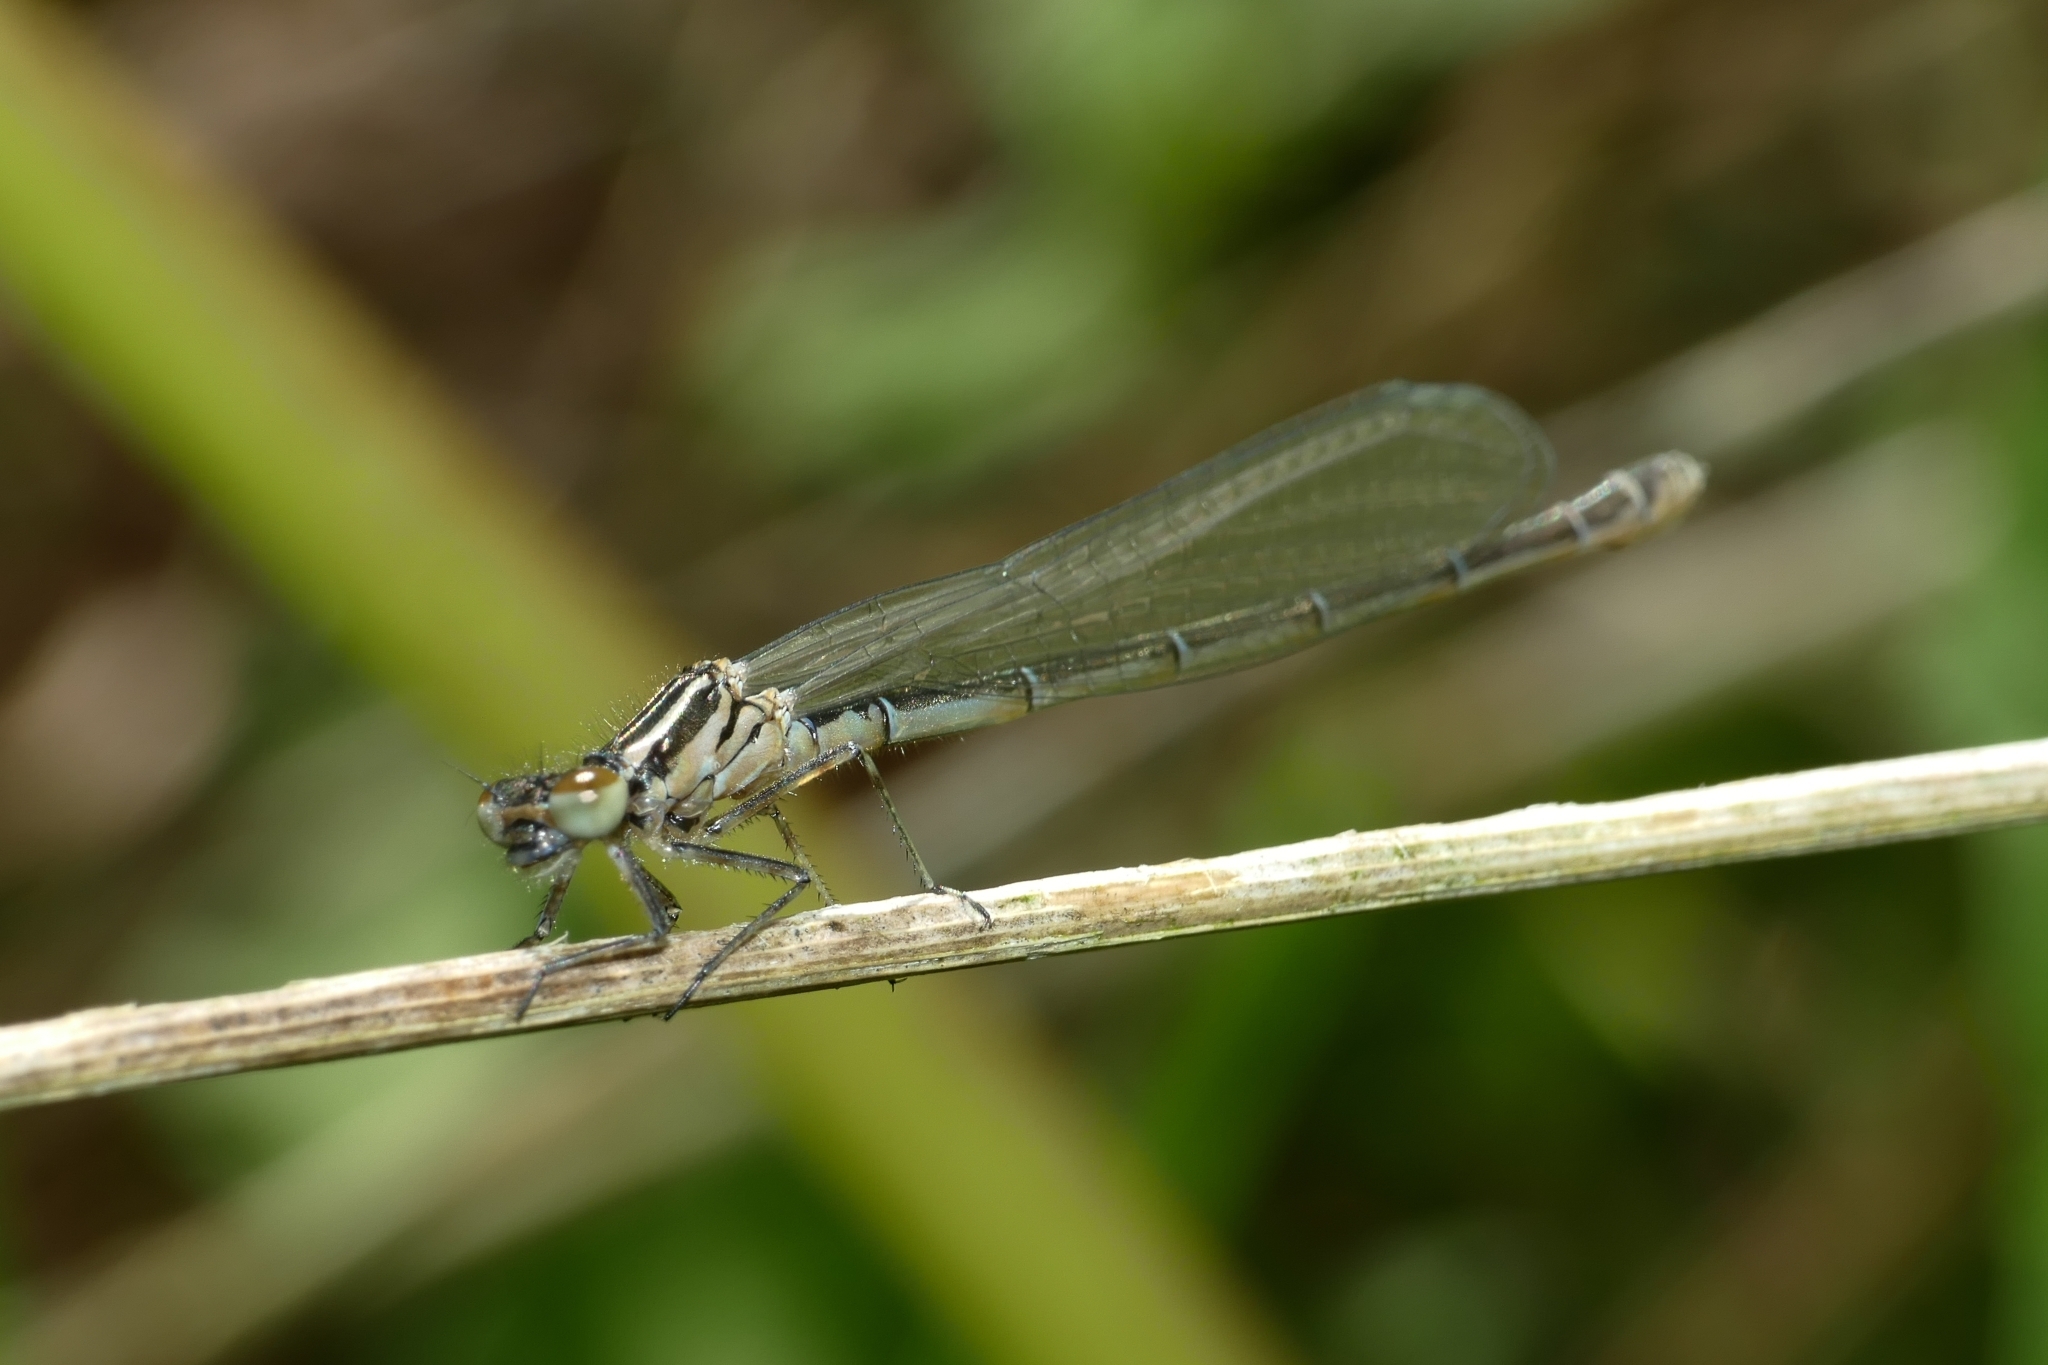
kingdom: Animalia
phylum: Arthropoda
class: Insecta
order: Odonata
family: Coenagrionidae
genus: Coenagrion
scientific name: Coenagrion puella
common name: Azure damselfly
